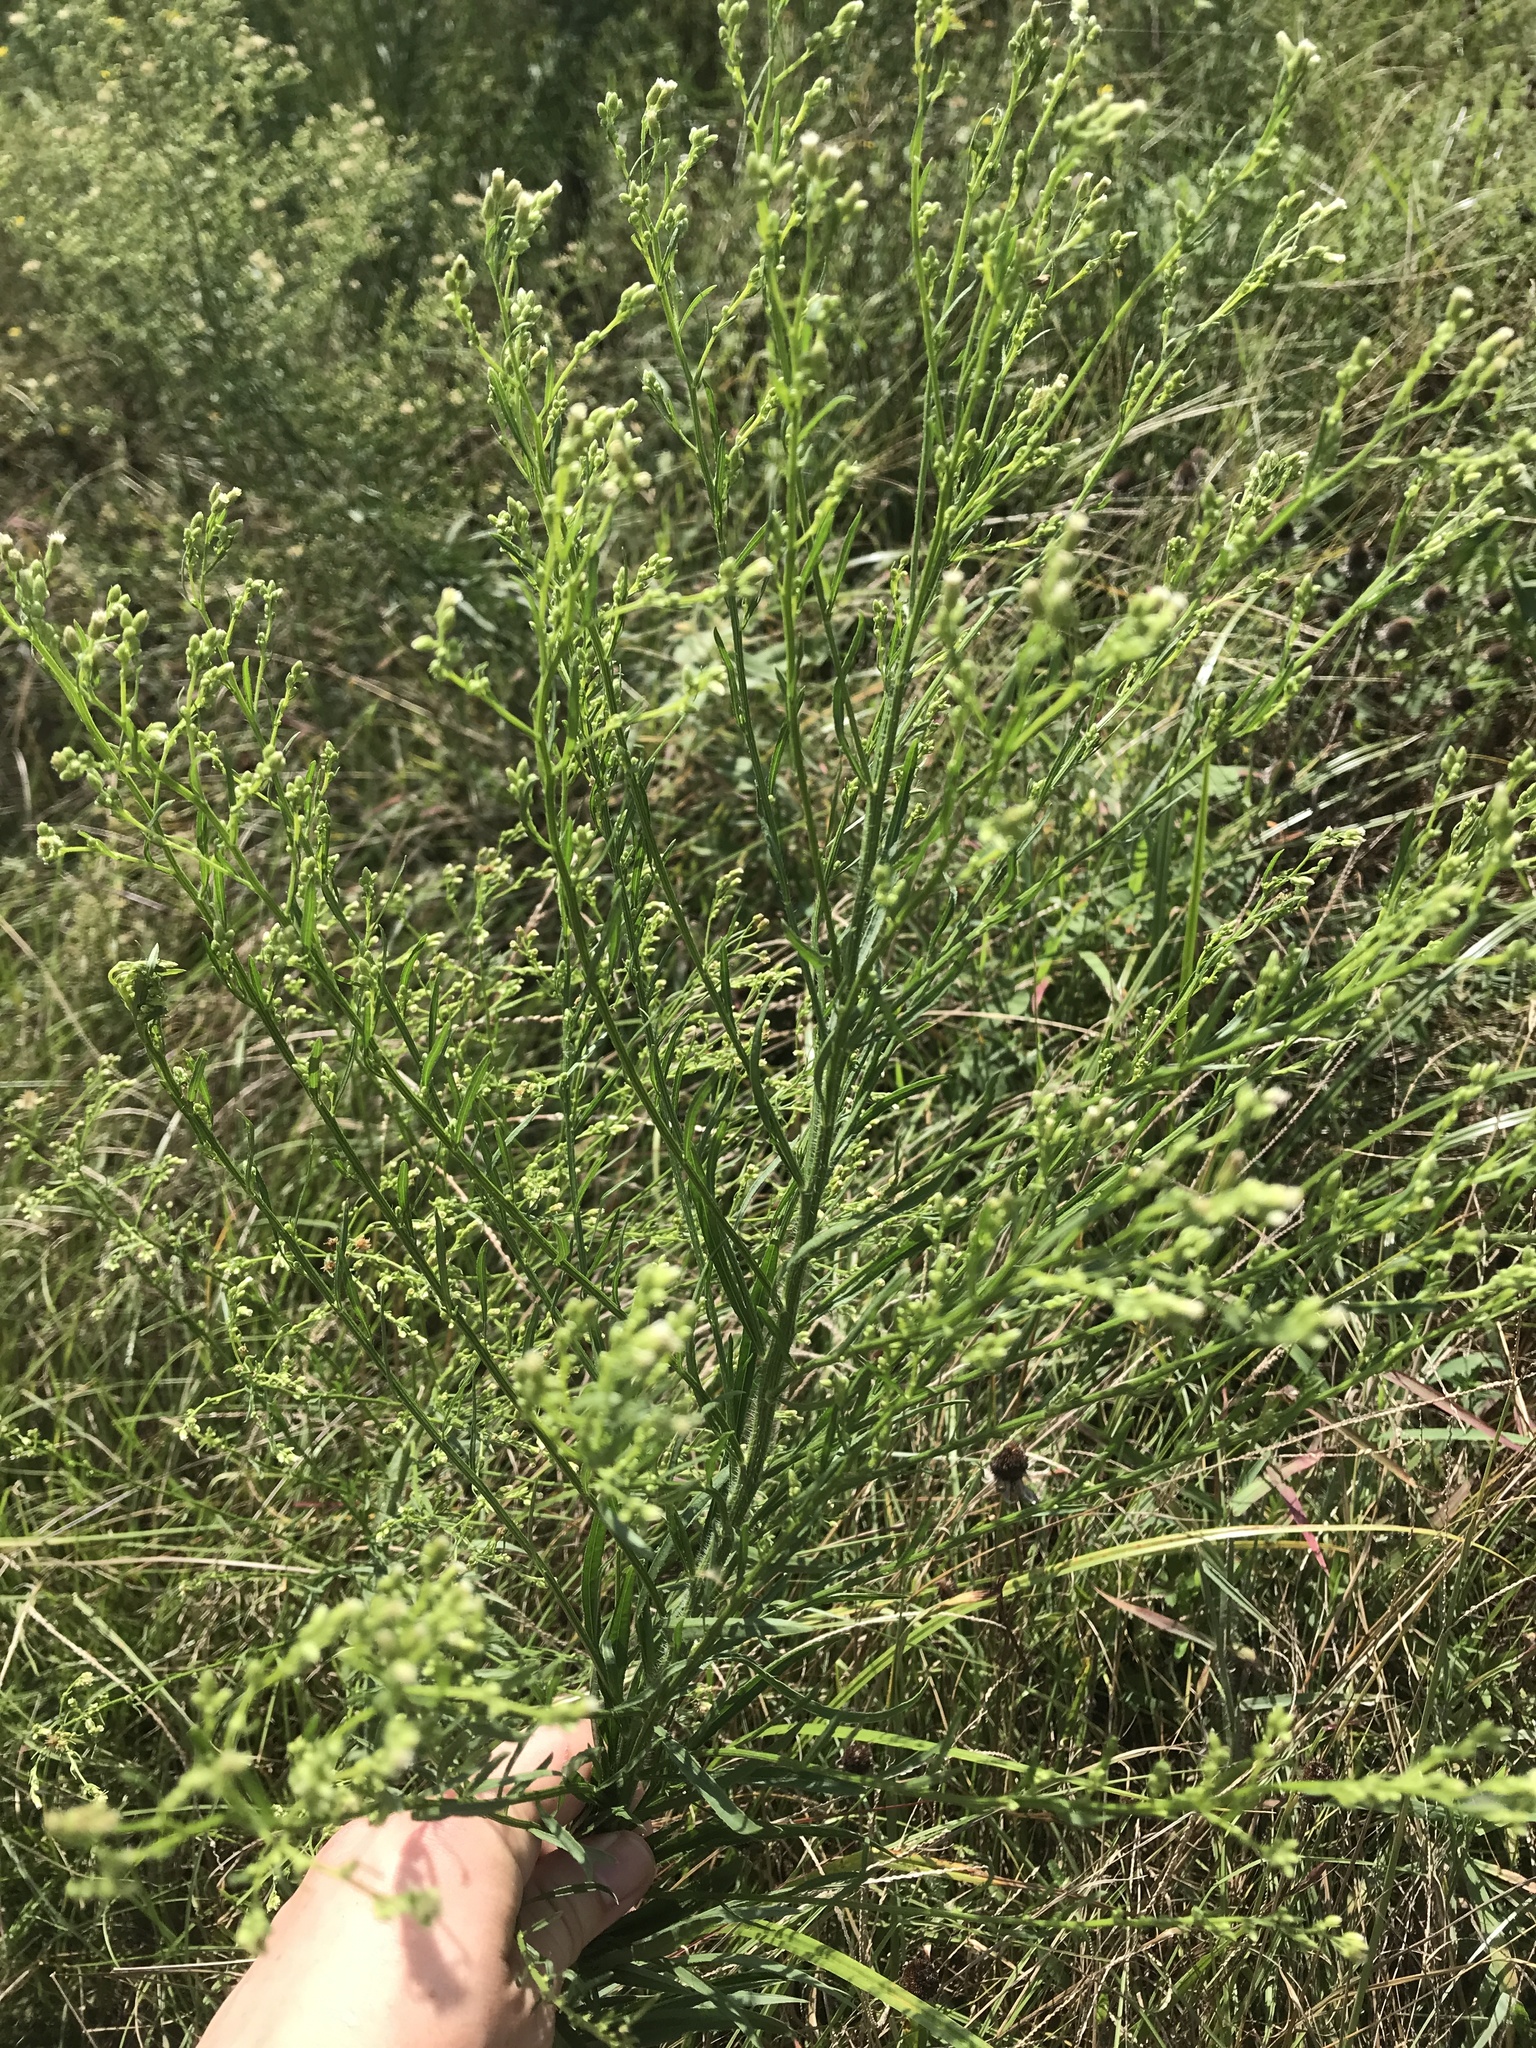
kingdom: Plantae
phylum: Tracheophyta
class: Magnoliopsida
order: Asterales
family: Asteraceae
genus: Erigeron
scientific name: Erigeron canadensis
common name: Canadian fleabane
